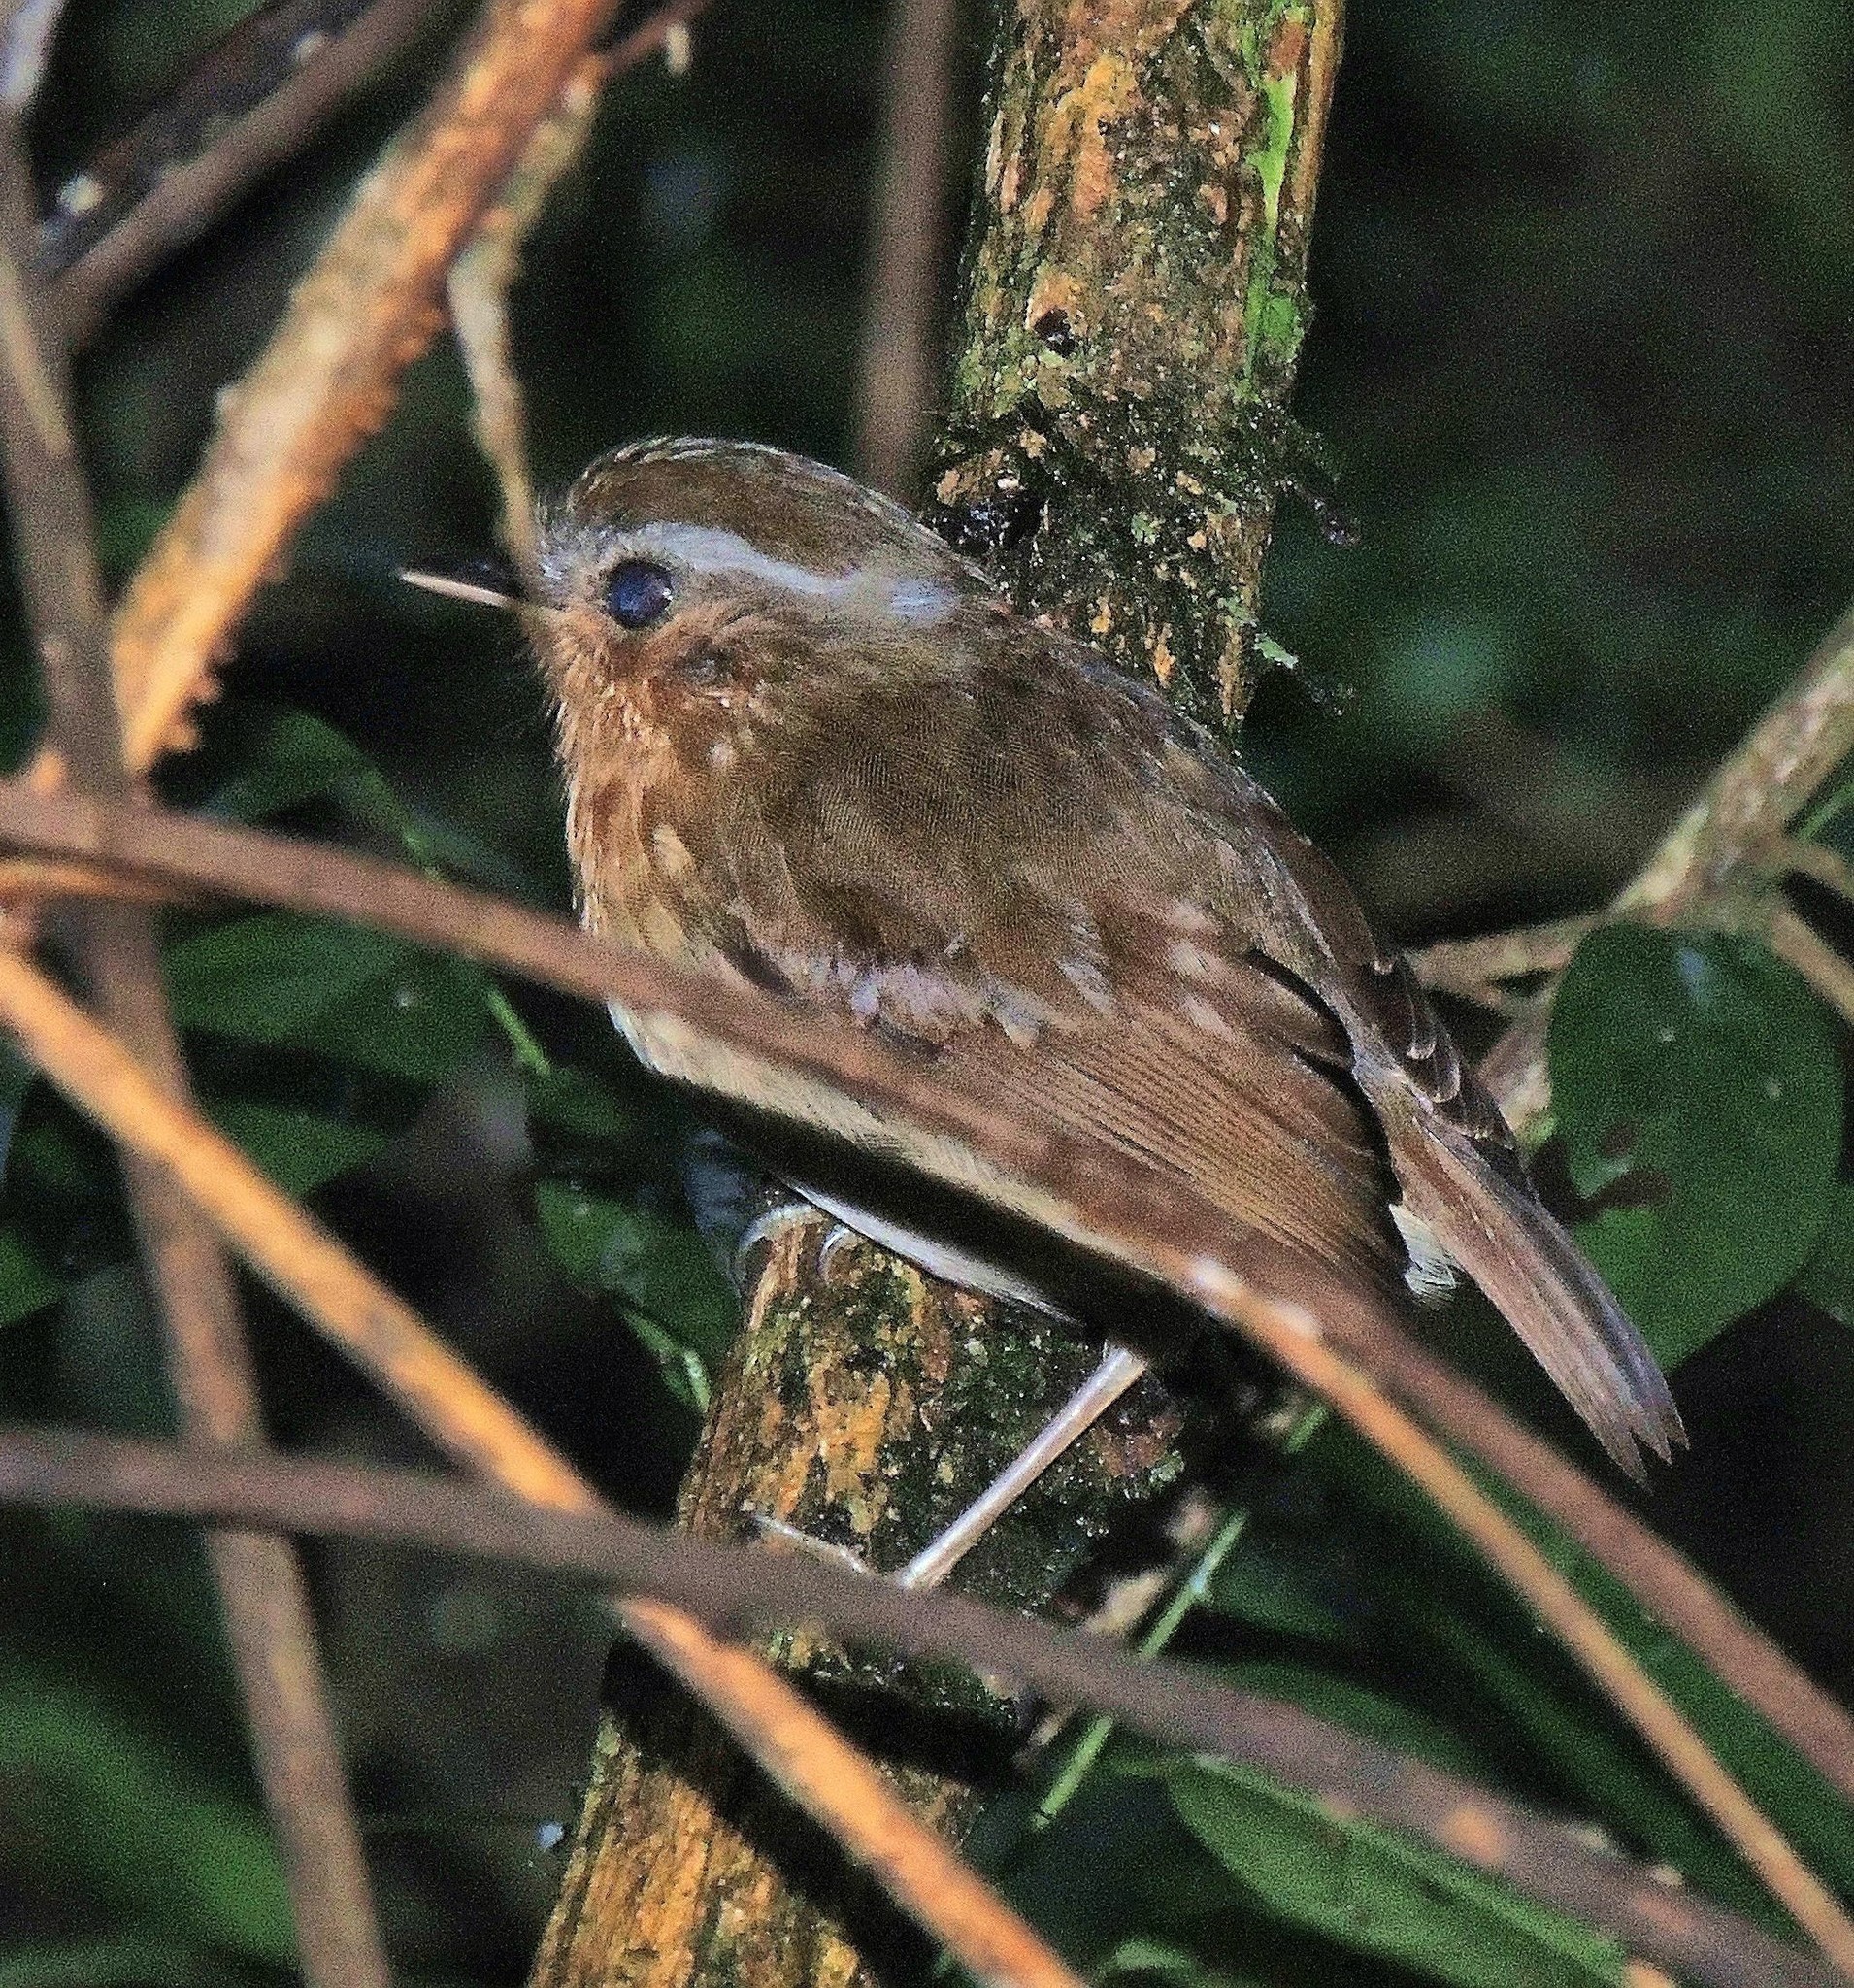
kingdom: Animalia
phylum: Chordata
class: Aves
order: Passeriformes
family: Conopophagidae
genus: Conopophaga
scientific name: Conopophaga lineata
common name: Rufous gnateater
